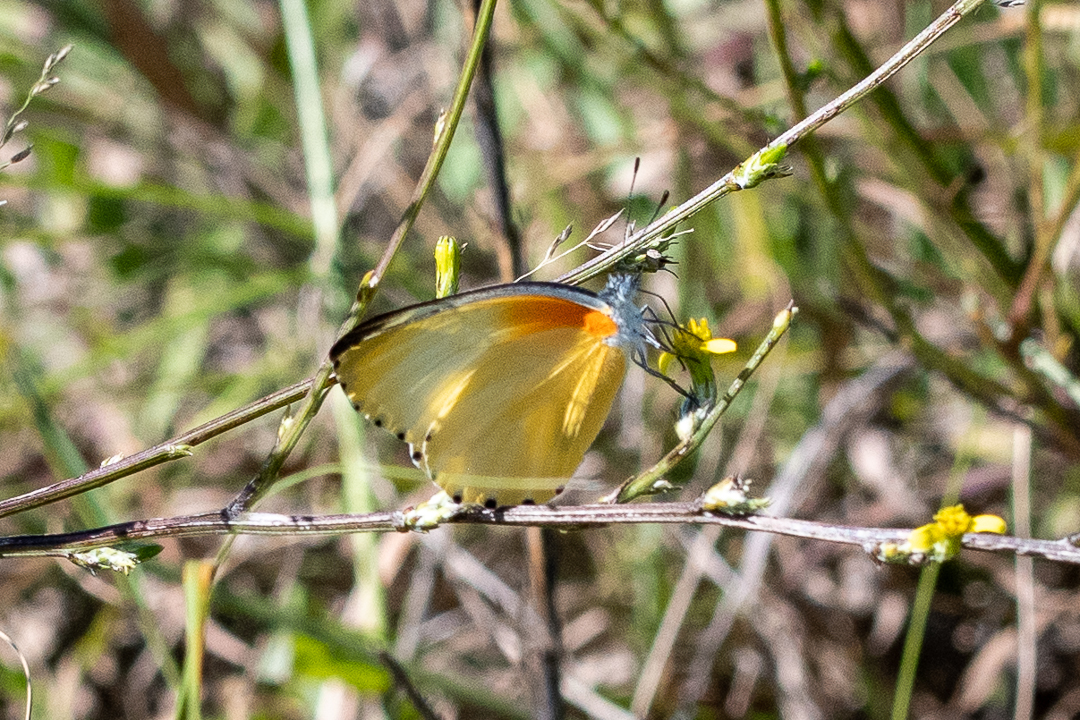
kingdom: Animalia
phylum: Arthropoda
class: Insecta
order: Lepidoptera
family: Pieridae
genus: Mylothris
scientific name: Mylothris agathina
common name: Eastern dotted border
